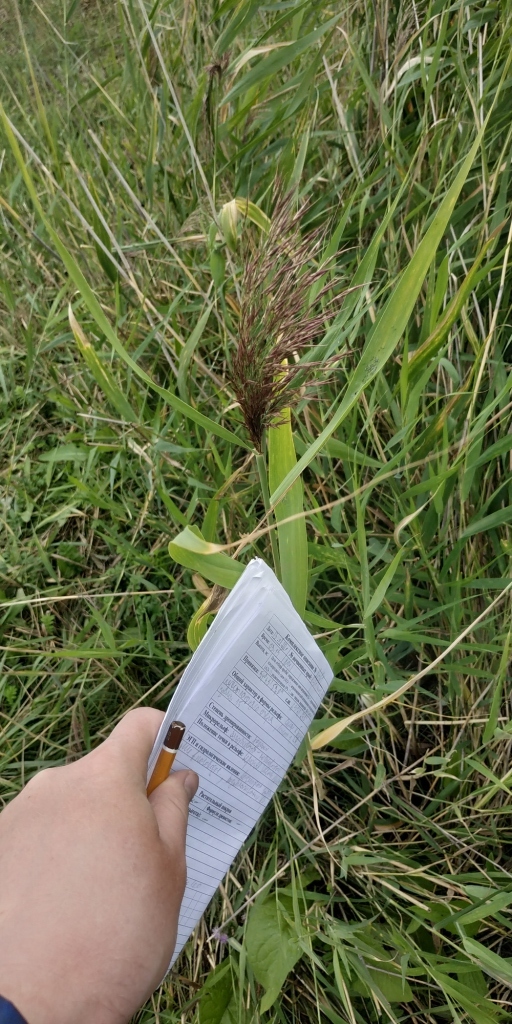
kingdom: Plantae
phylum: Tracheophyta
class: Liliopsida
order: Poales
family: Poaceae
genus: Phragmites
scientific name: Phragmites australis
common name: Common reed
